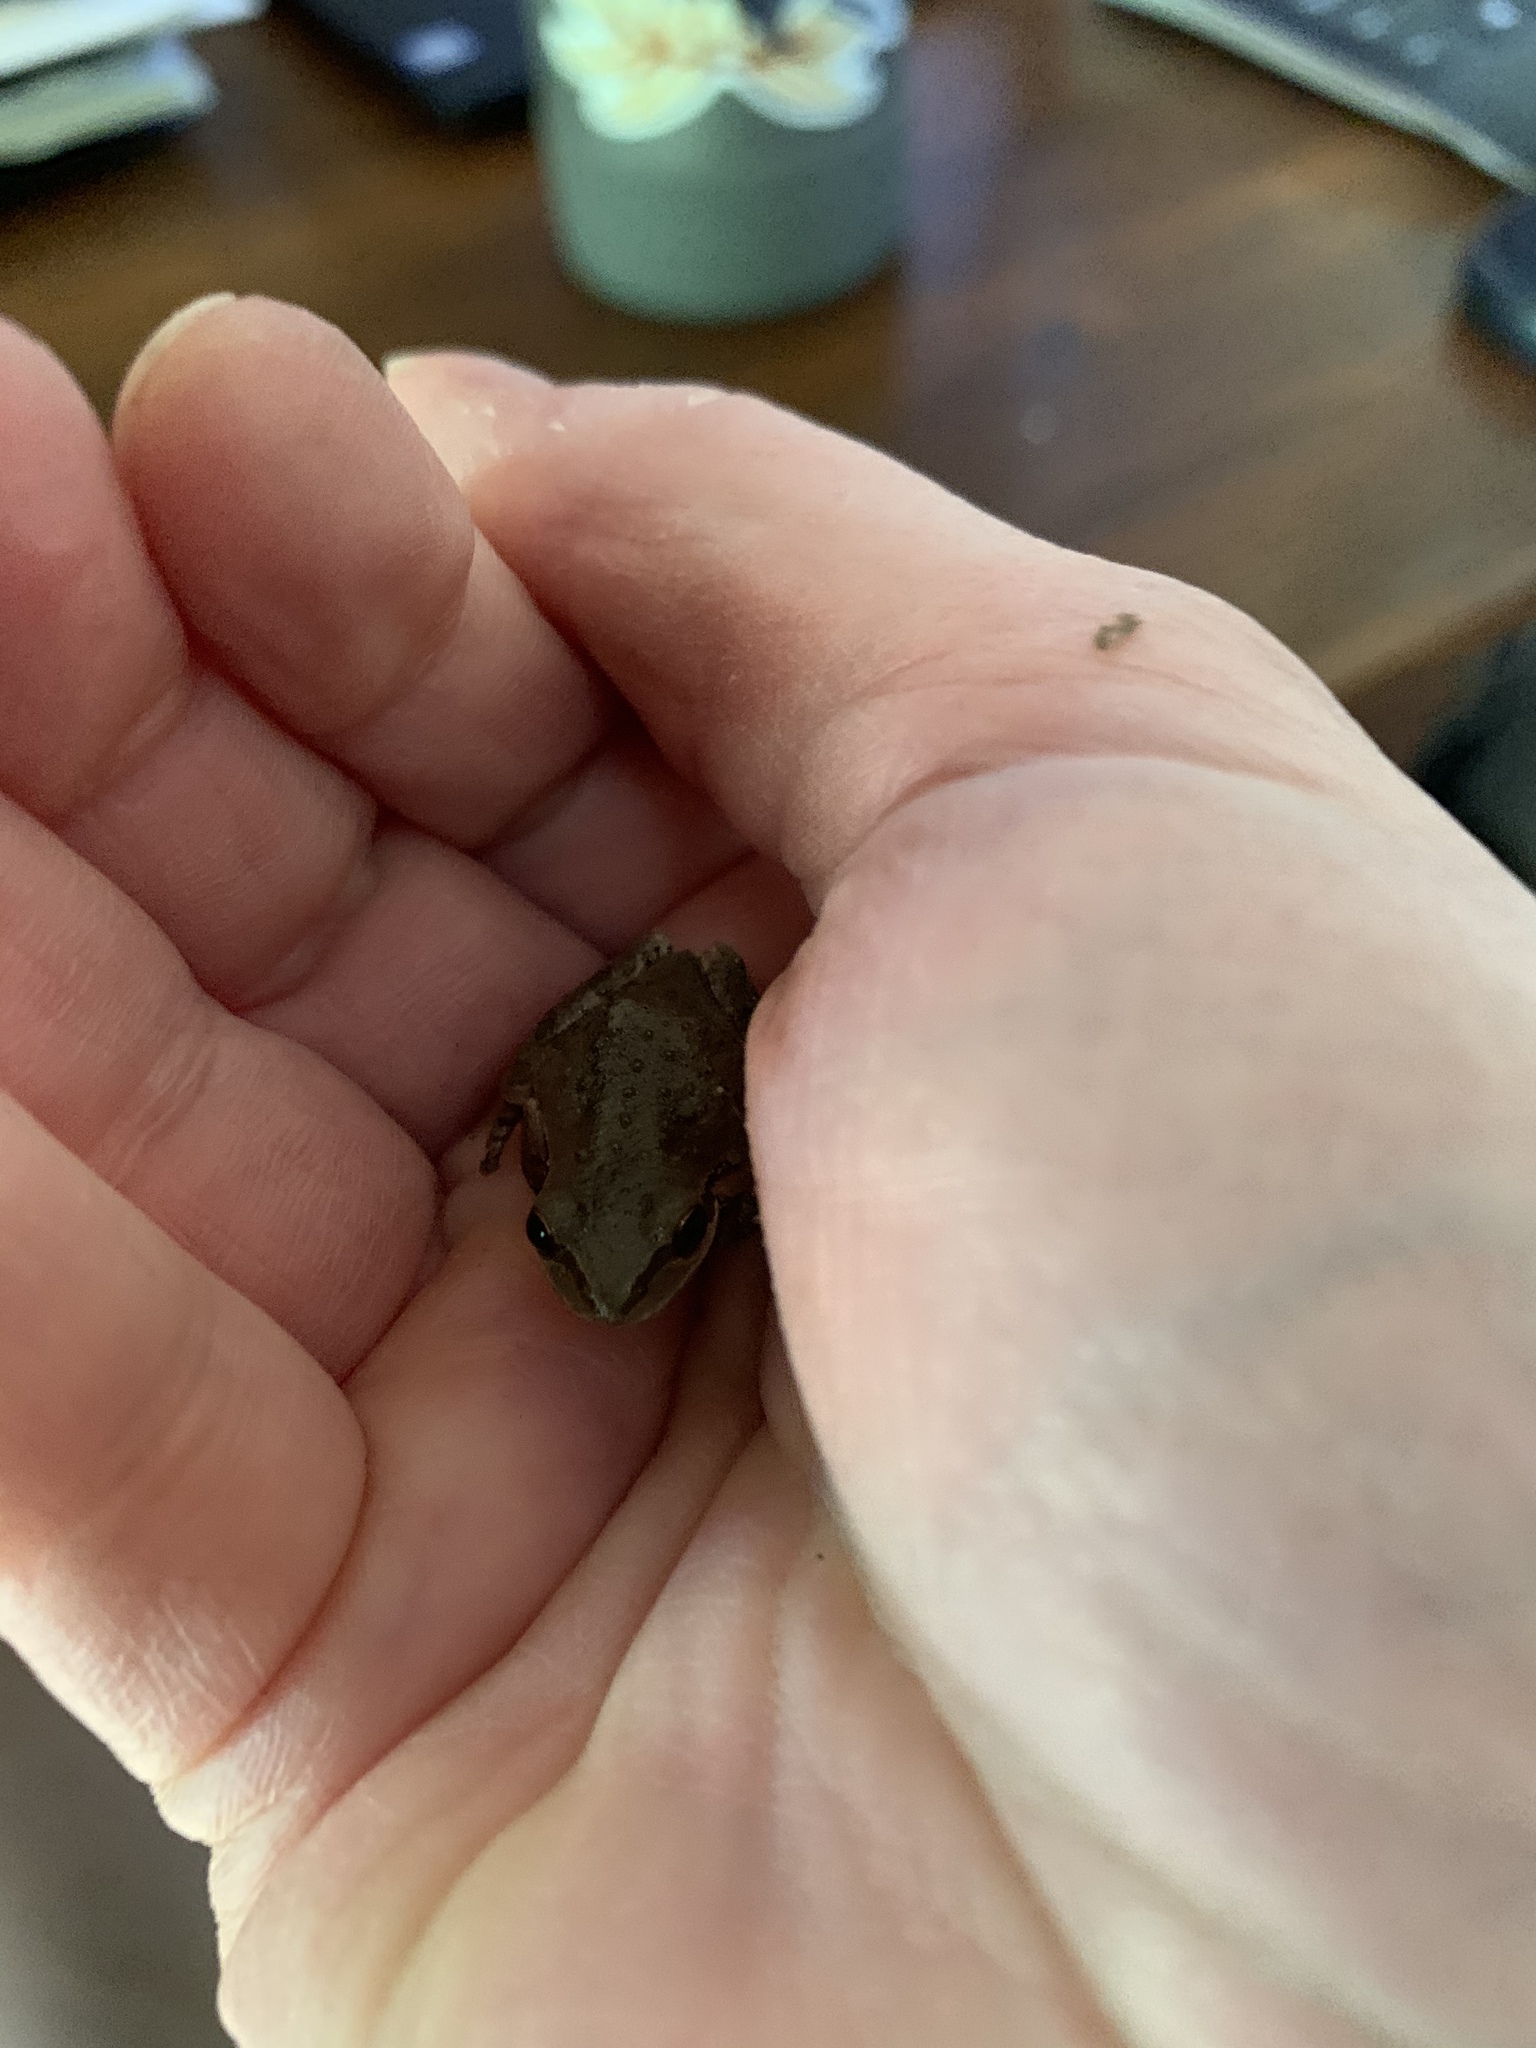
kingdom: Animalia
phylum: Chordata
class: Amphibia
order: Anura
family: Hylidae
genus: Pseudacris
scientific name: Pseudacris regilla
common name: Pacific chorus frog
